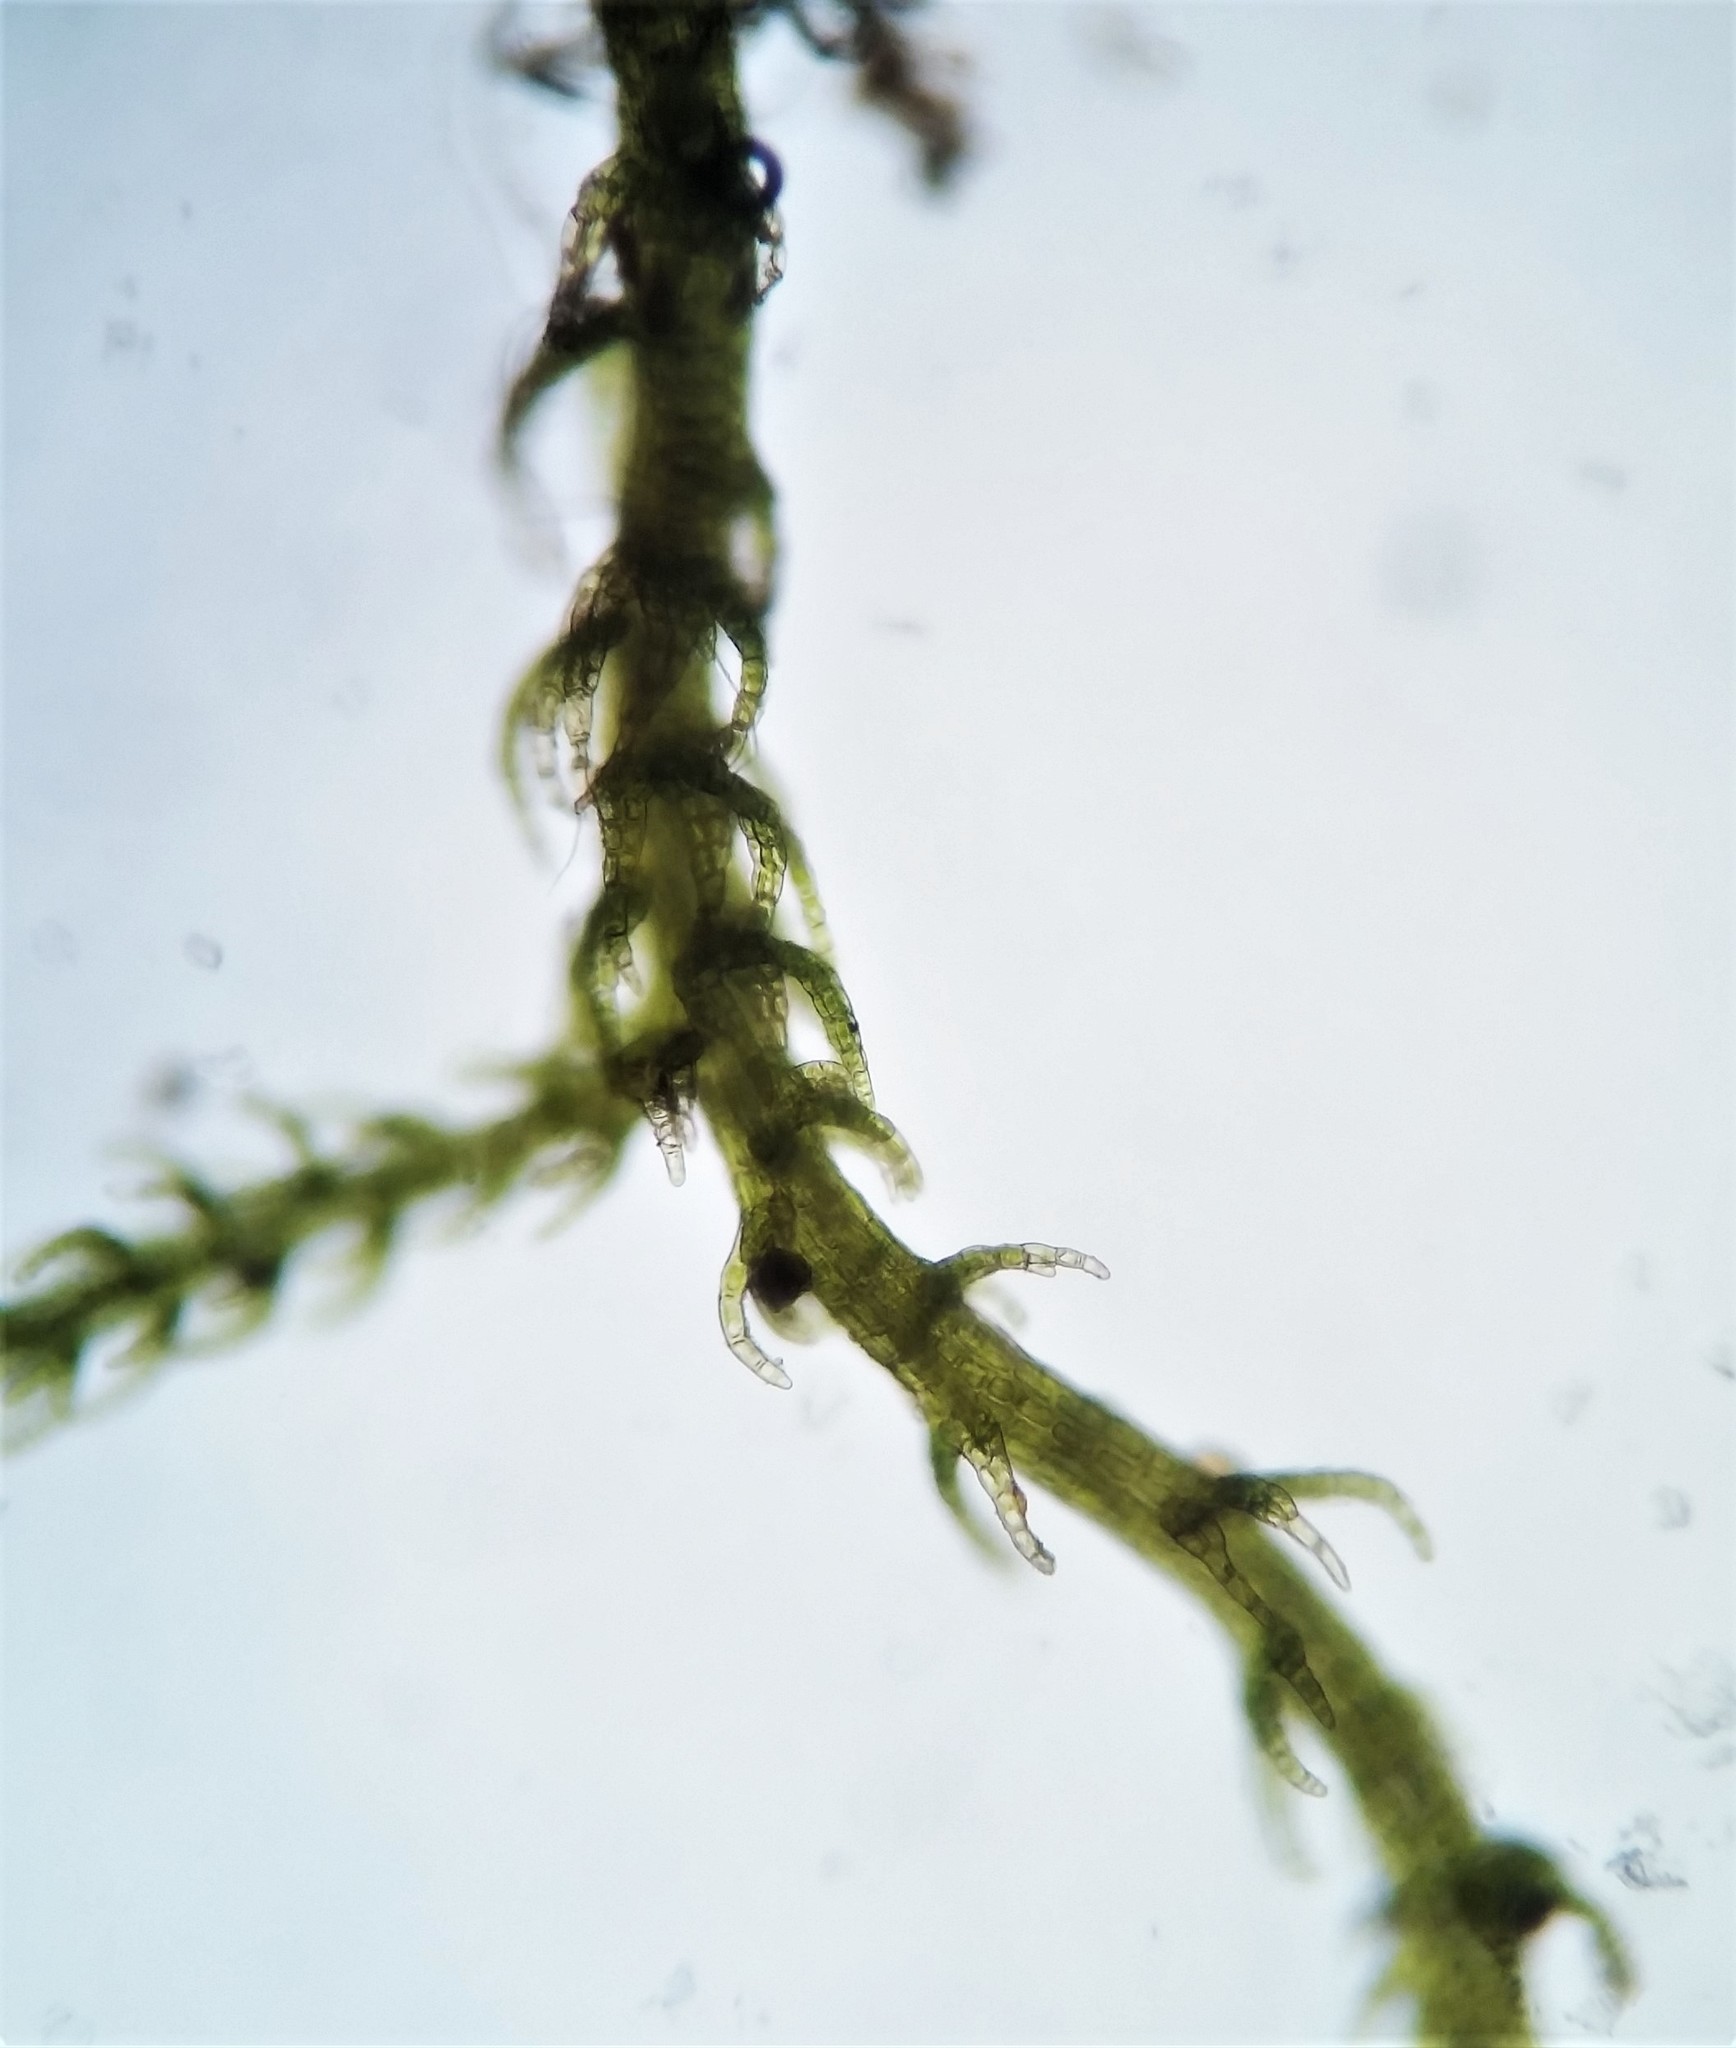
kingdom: Plantae
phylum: Marchantiophyta
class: Jungermanniopsida
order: Jungermanniales
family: Lepidoziaceae
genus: Kurzia
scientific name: Kurzia sylvatica
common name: Wood fingerwort
